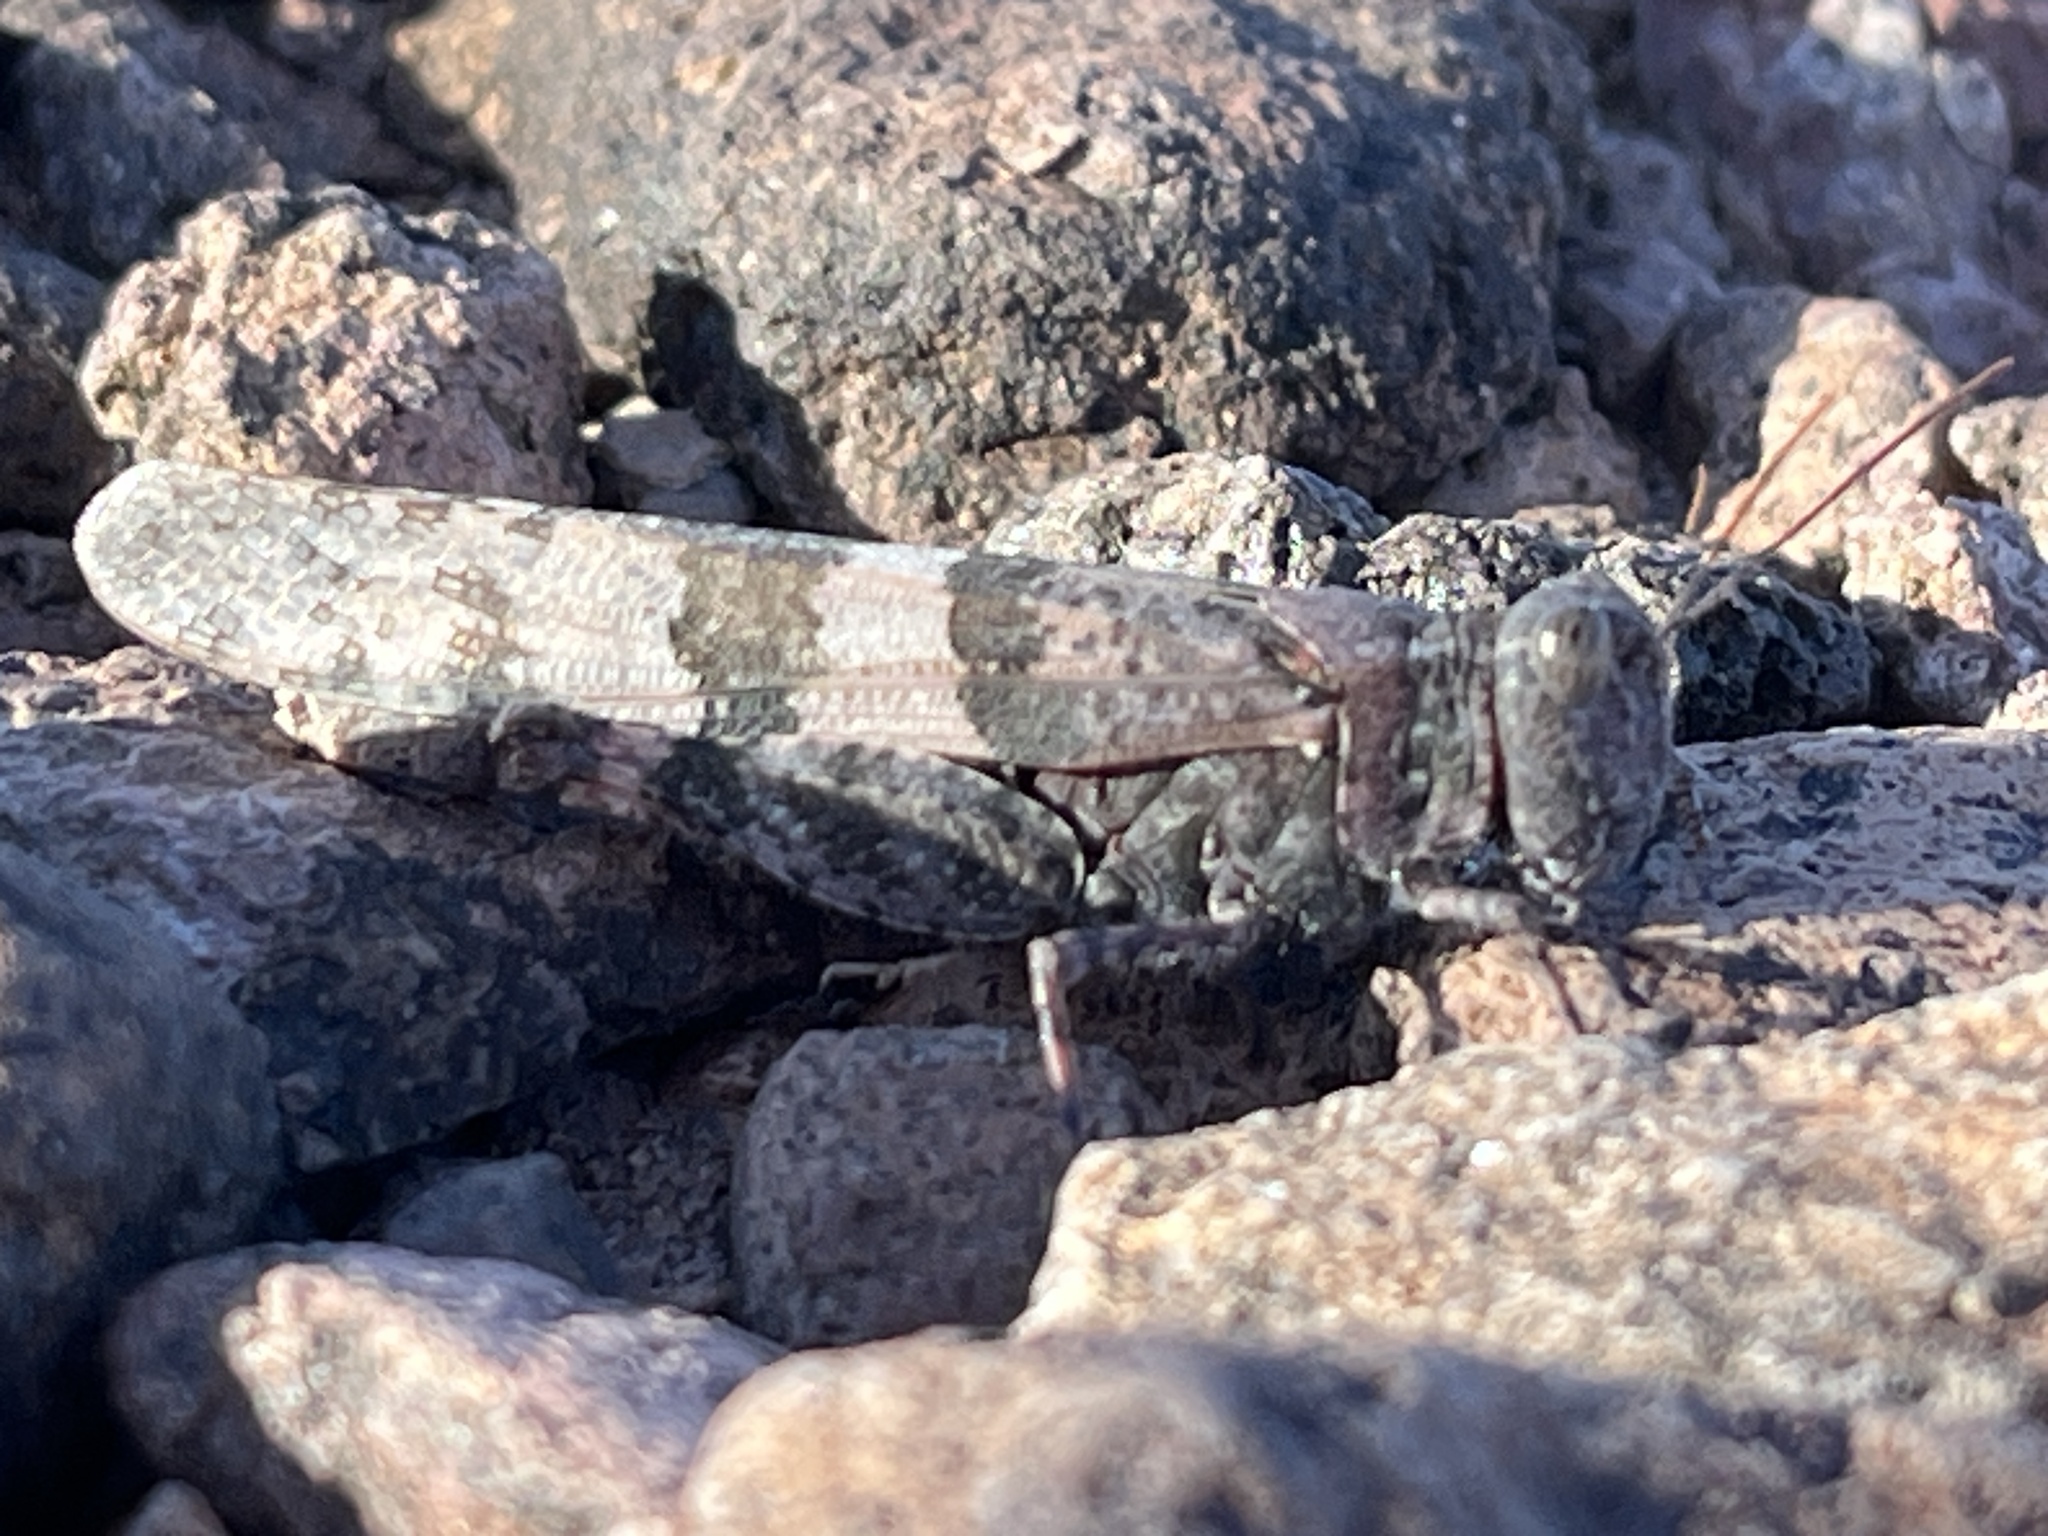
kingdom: Animalia
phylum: Arthropoda
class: Insecta
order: Orthoptera
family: Acrididae
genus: Trimerotropis
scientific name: Trimerotropis pallidipennis
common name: Pallid-winged grasshopper
